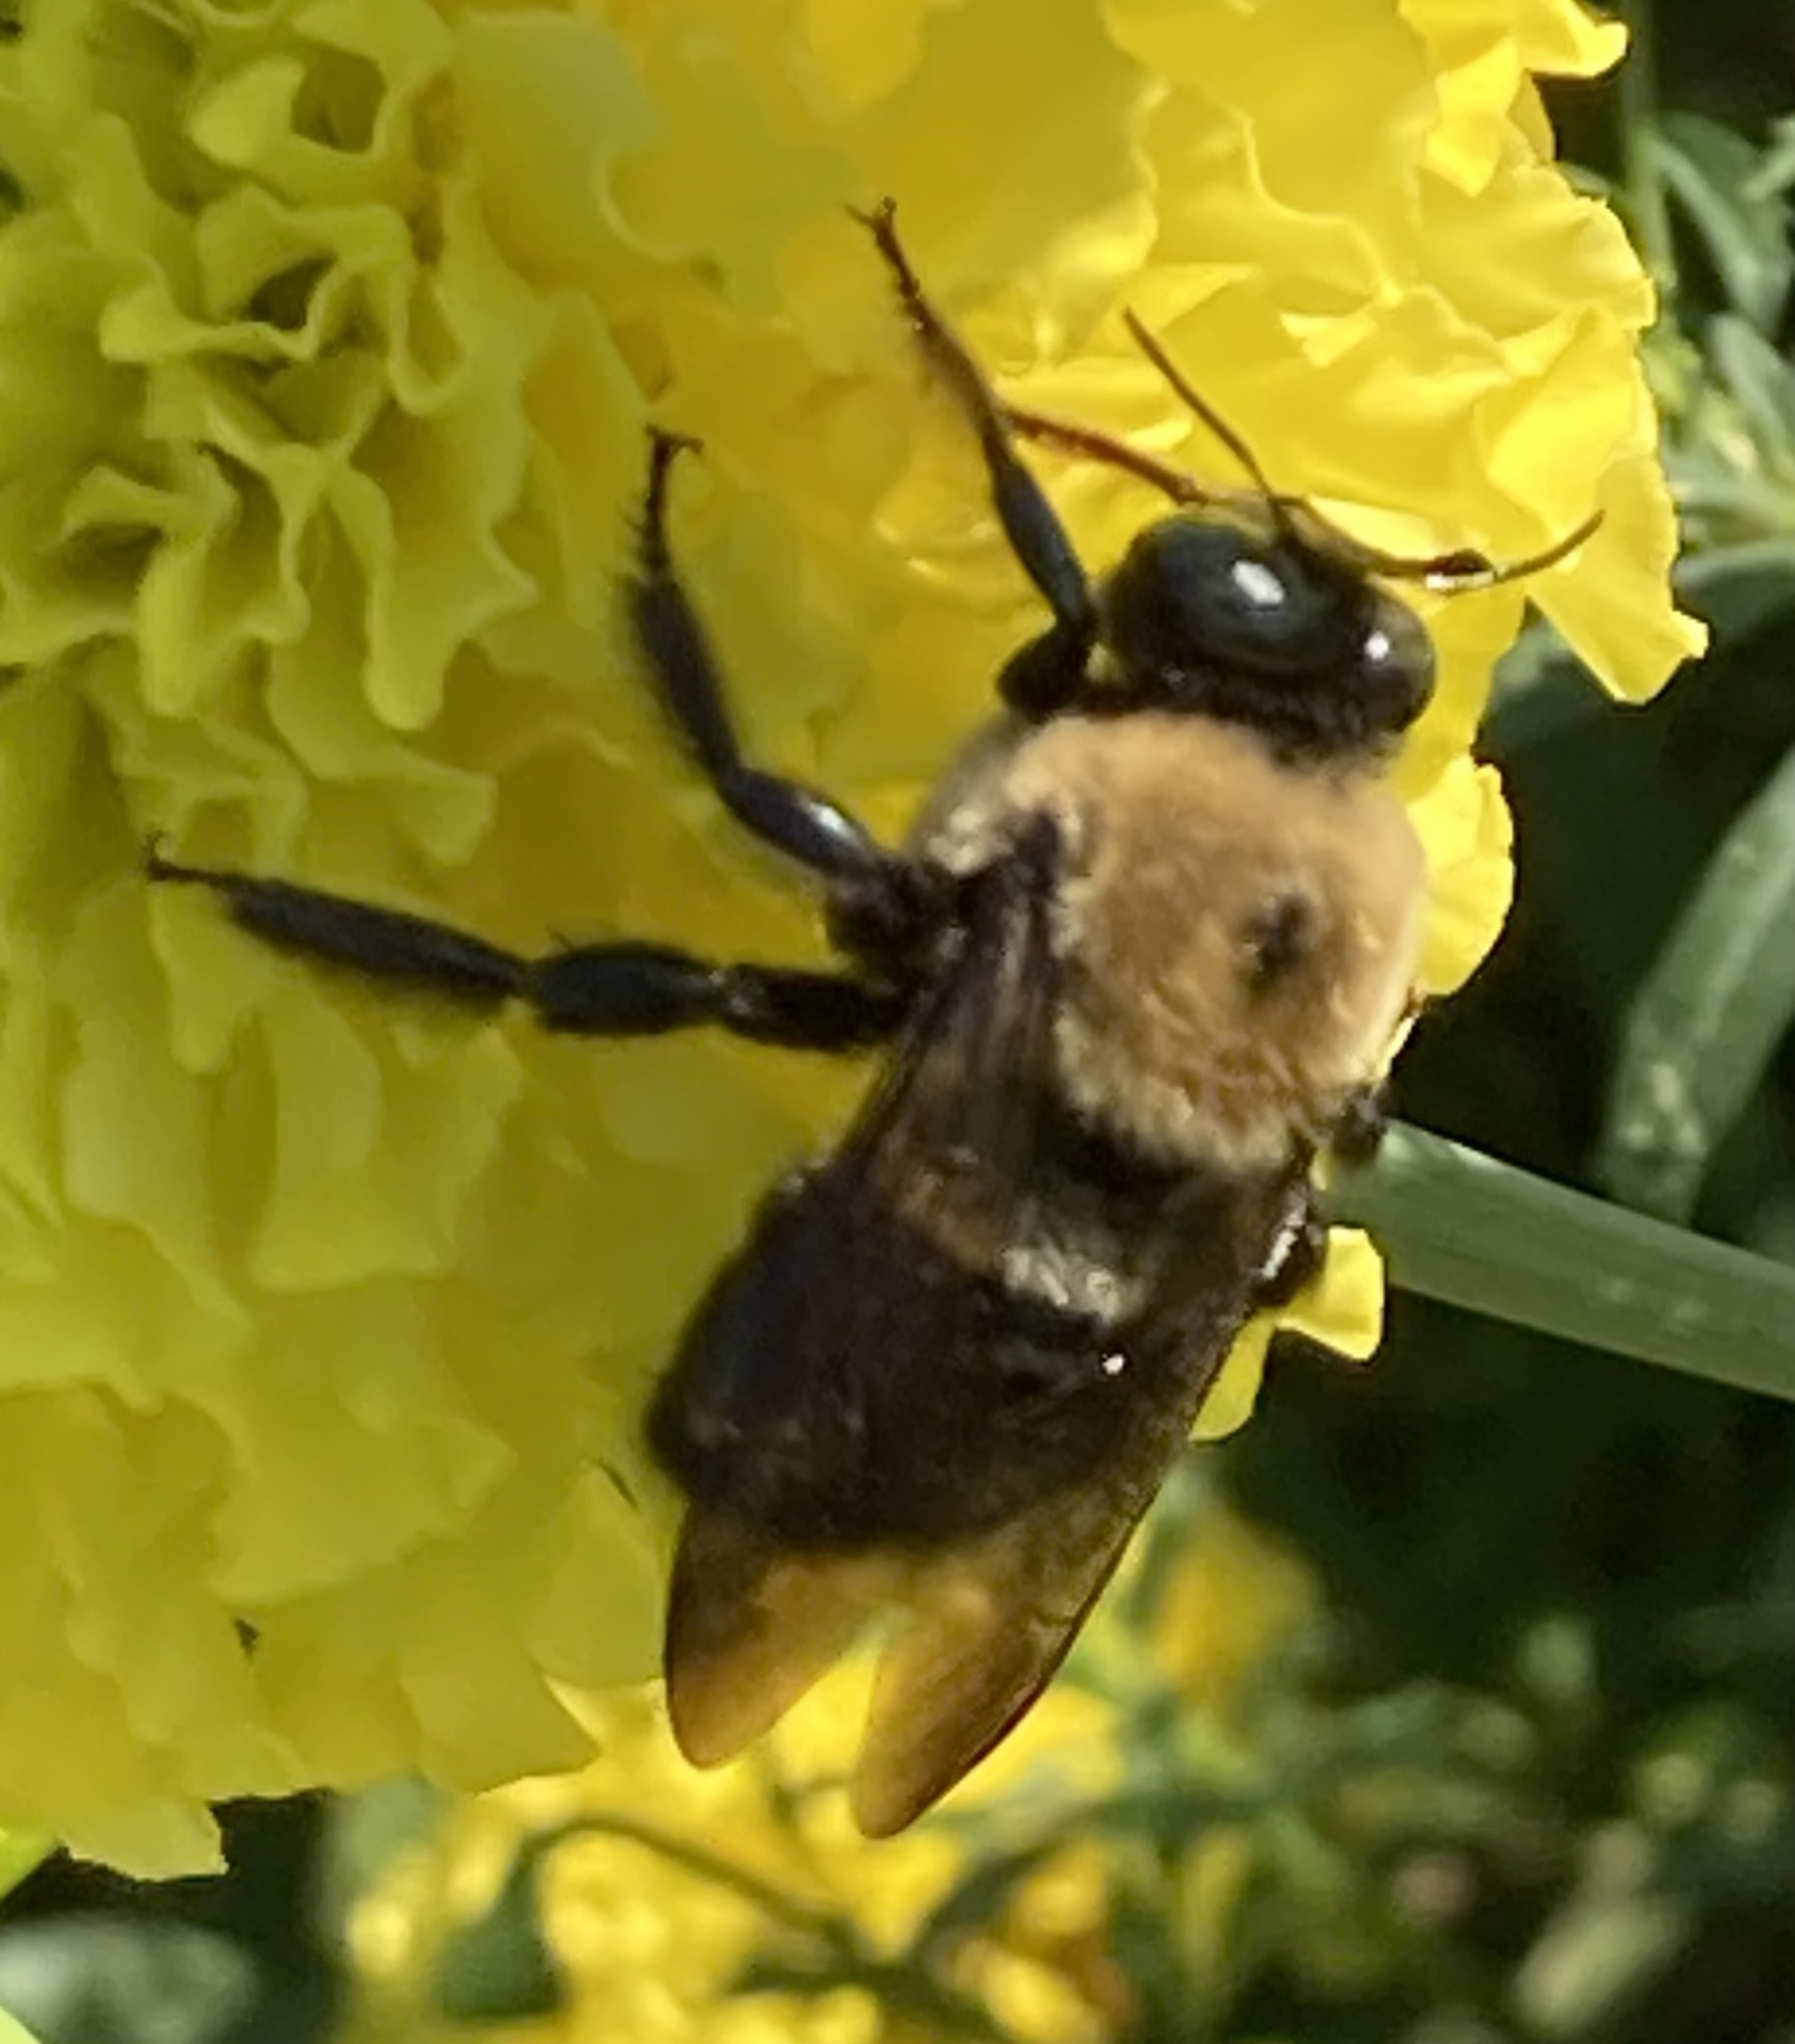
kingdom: Animalia
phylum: Arthropoda
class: Insecta
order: Hymenoptera
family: Apidae
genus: Xylocopa
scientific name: Xylocopa virginica
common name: Carpenter bee
